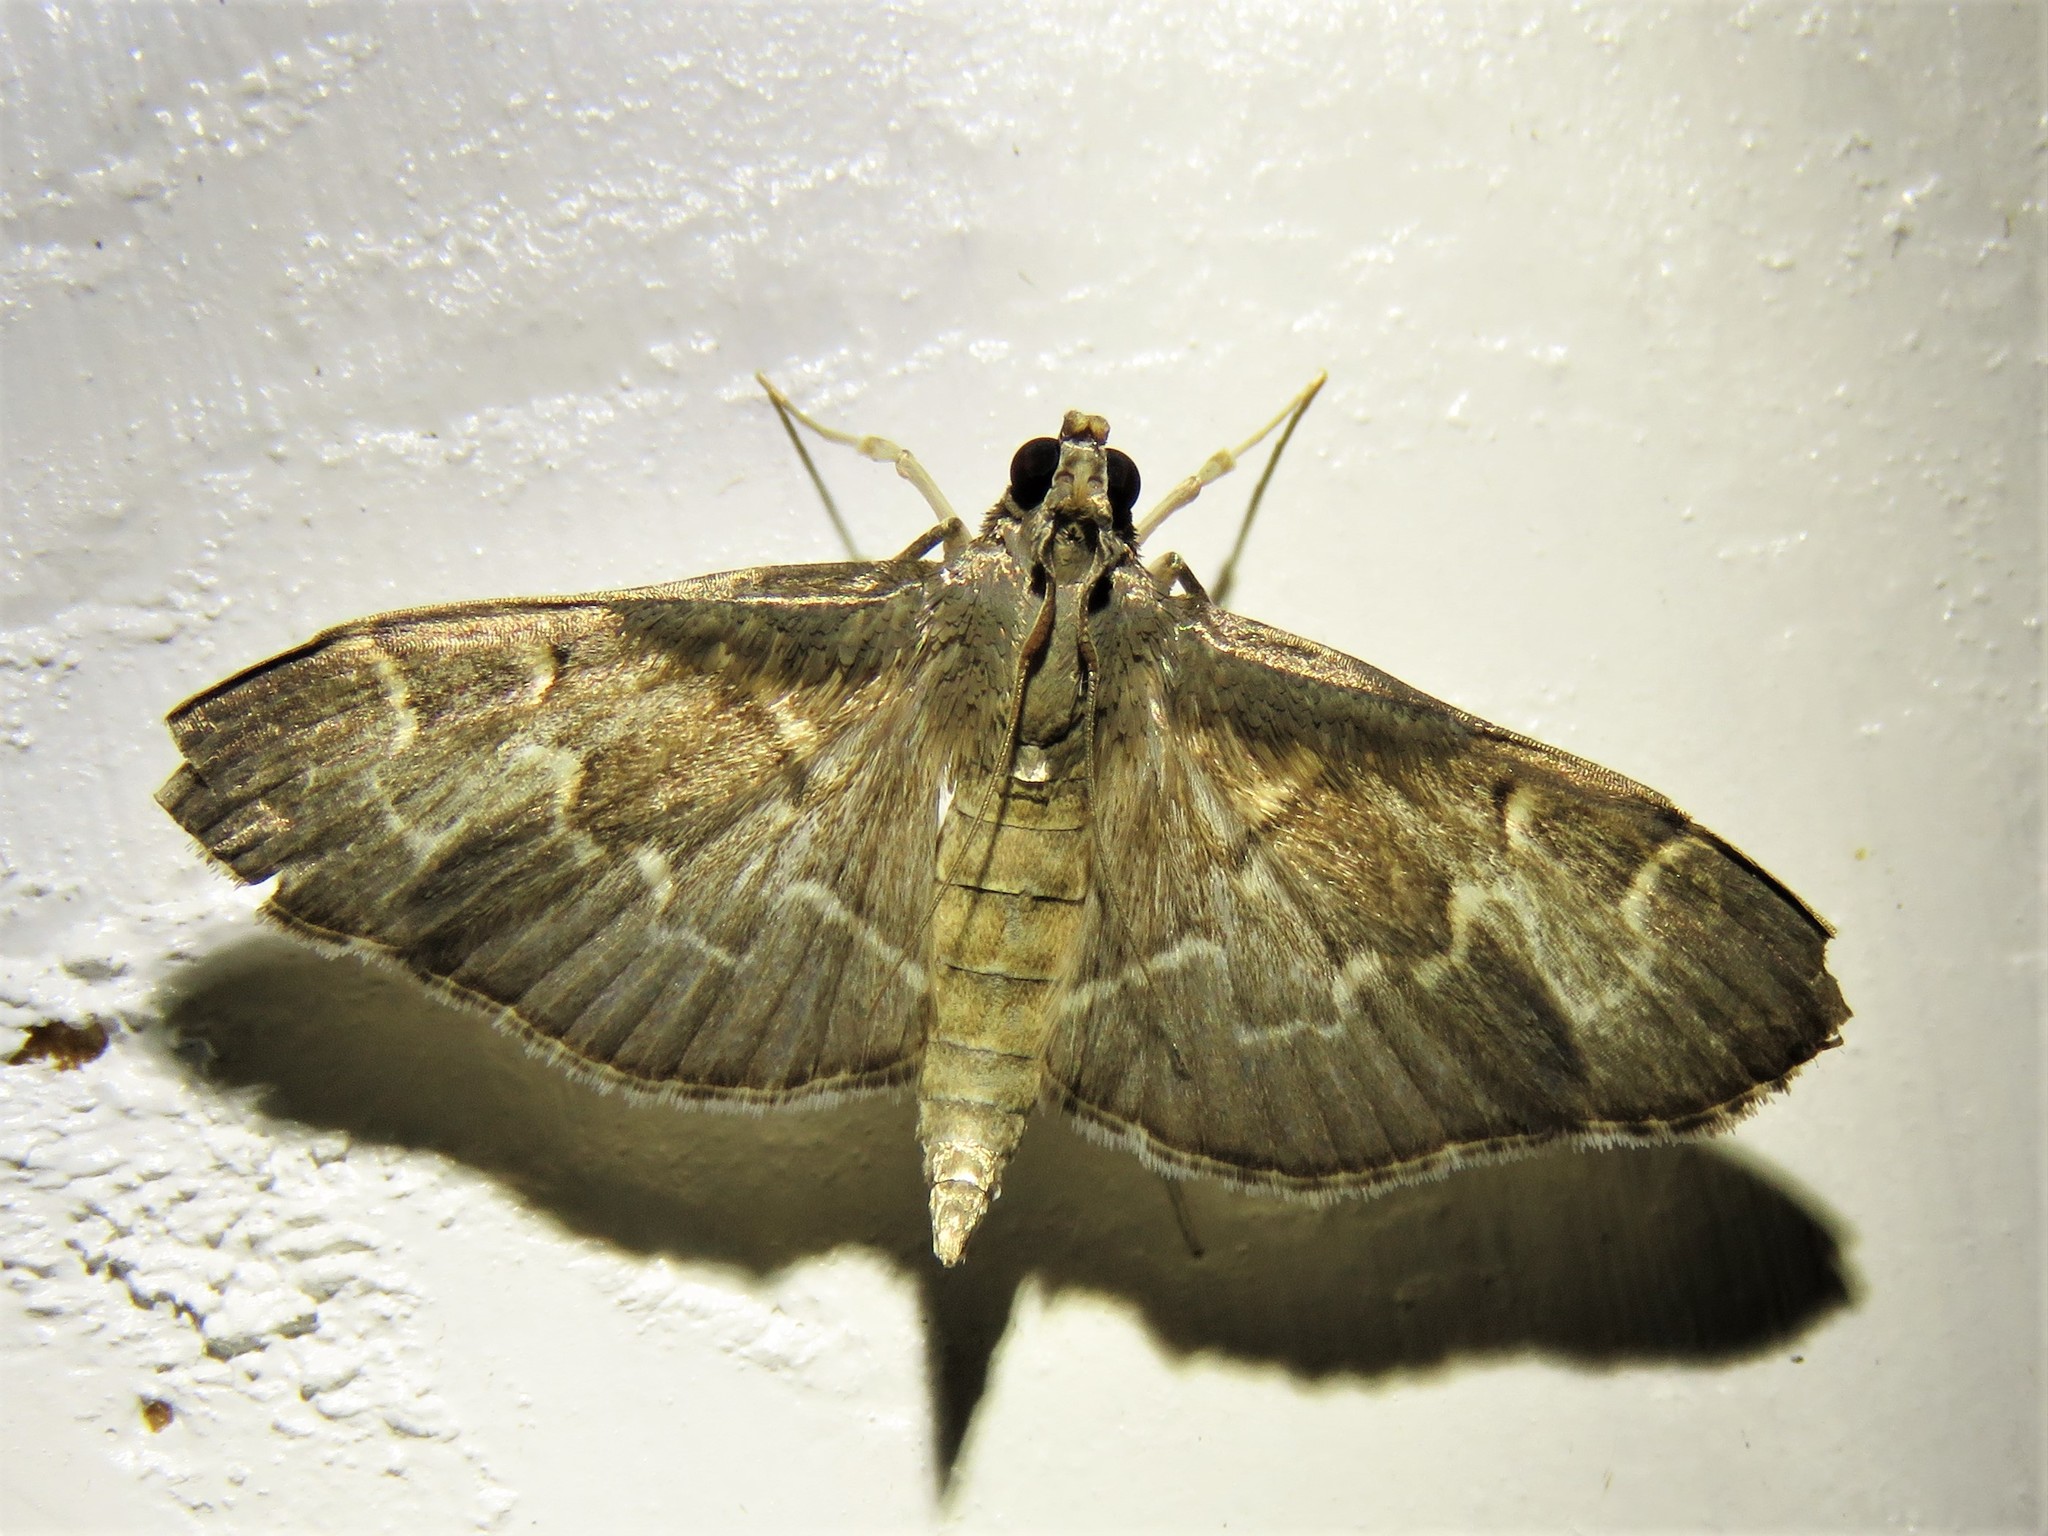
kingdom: Animalia
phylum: Arthropoda
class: Insecta
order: Lepidoptera
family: Crambidae
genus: Pilocrocis
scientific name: Pilocrocis ramentalis
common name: Scraped pilocrocis
